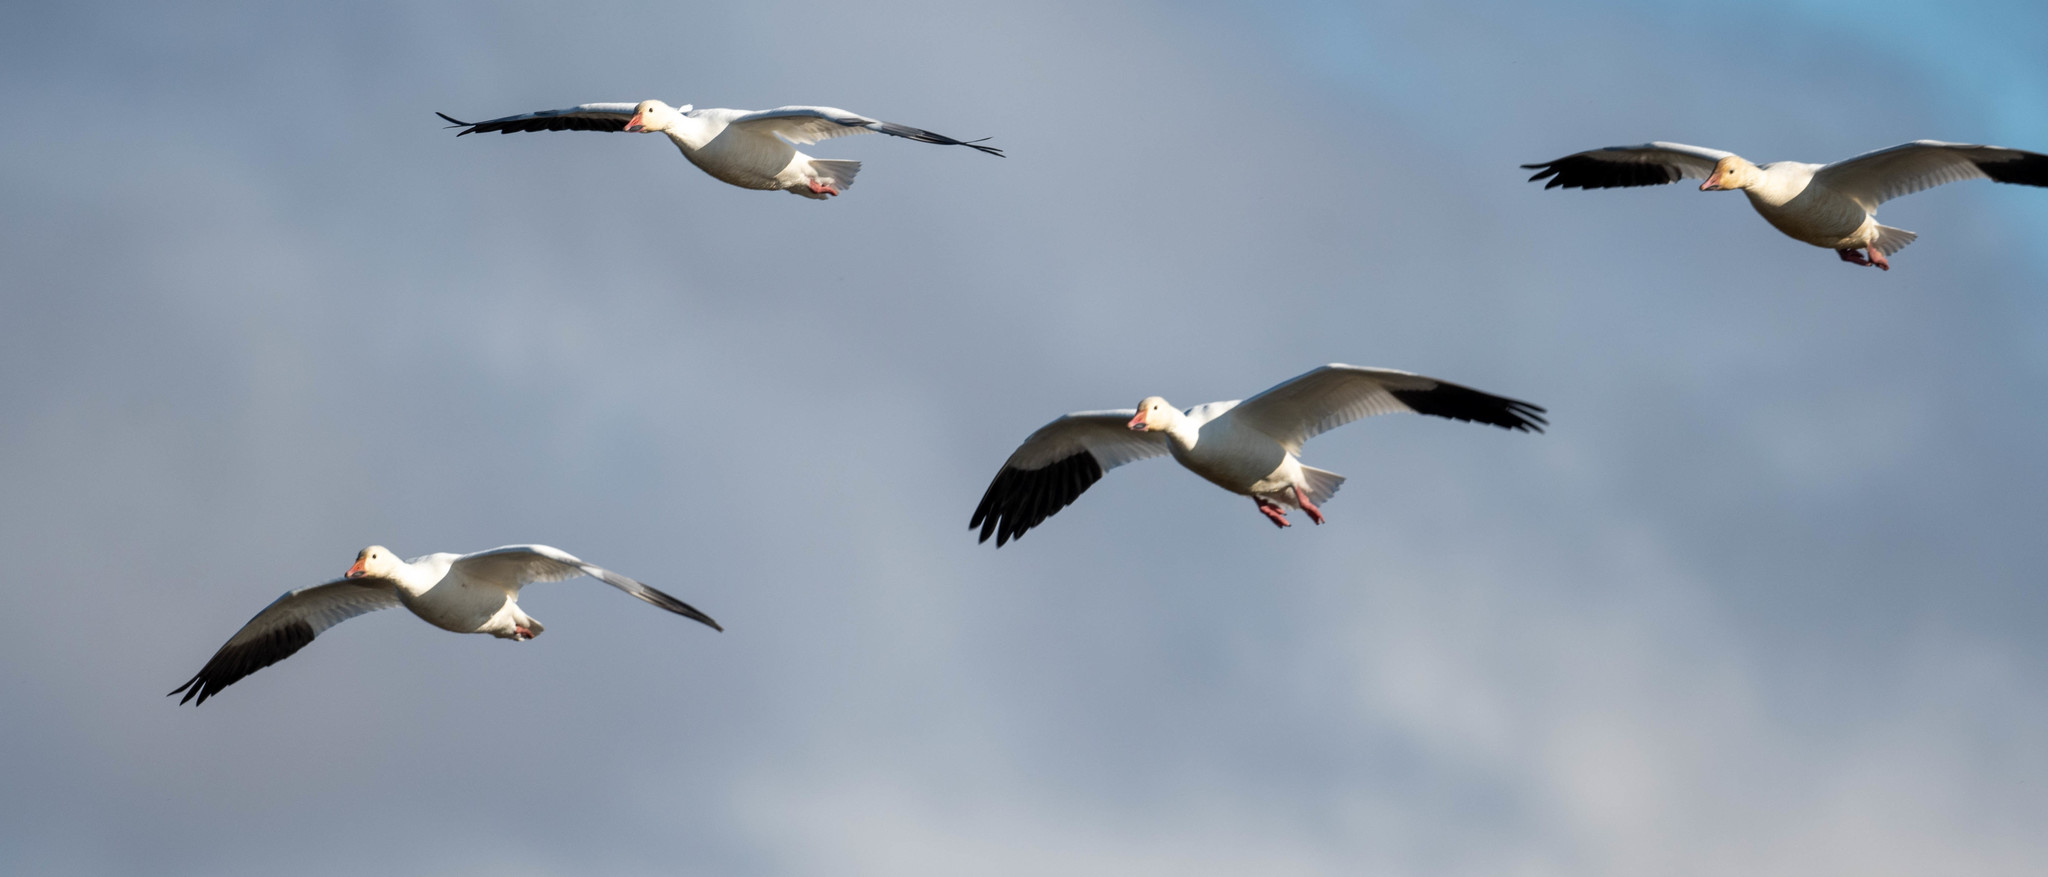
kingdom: Animalia
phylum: Chordata
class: Aves
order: Anseriformes
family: Anatidae
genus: Anser
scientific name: Anser caerulescens
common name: Snow goose
